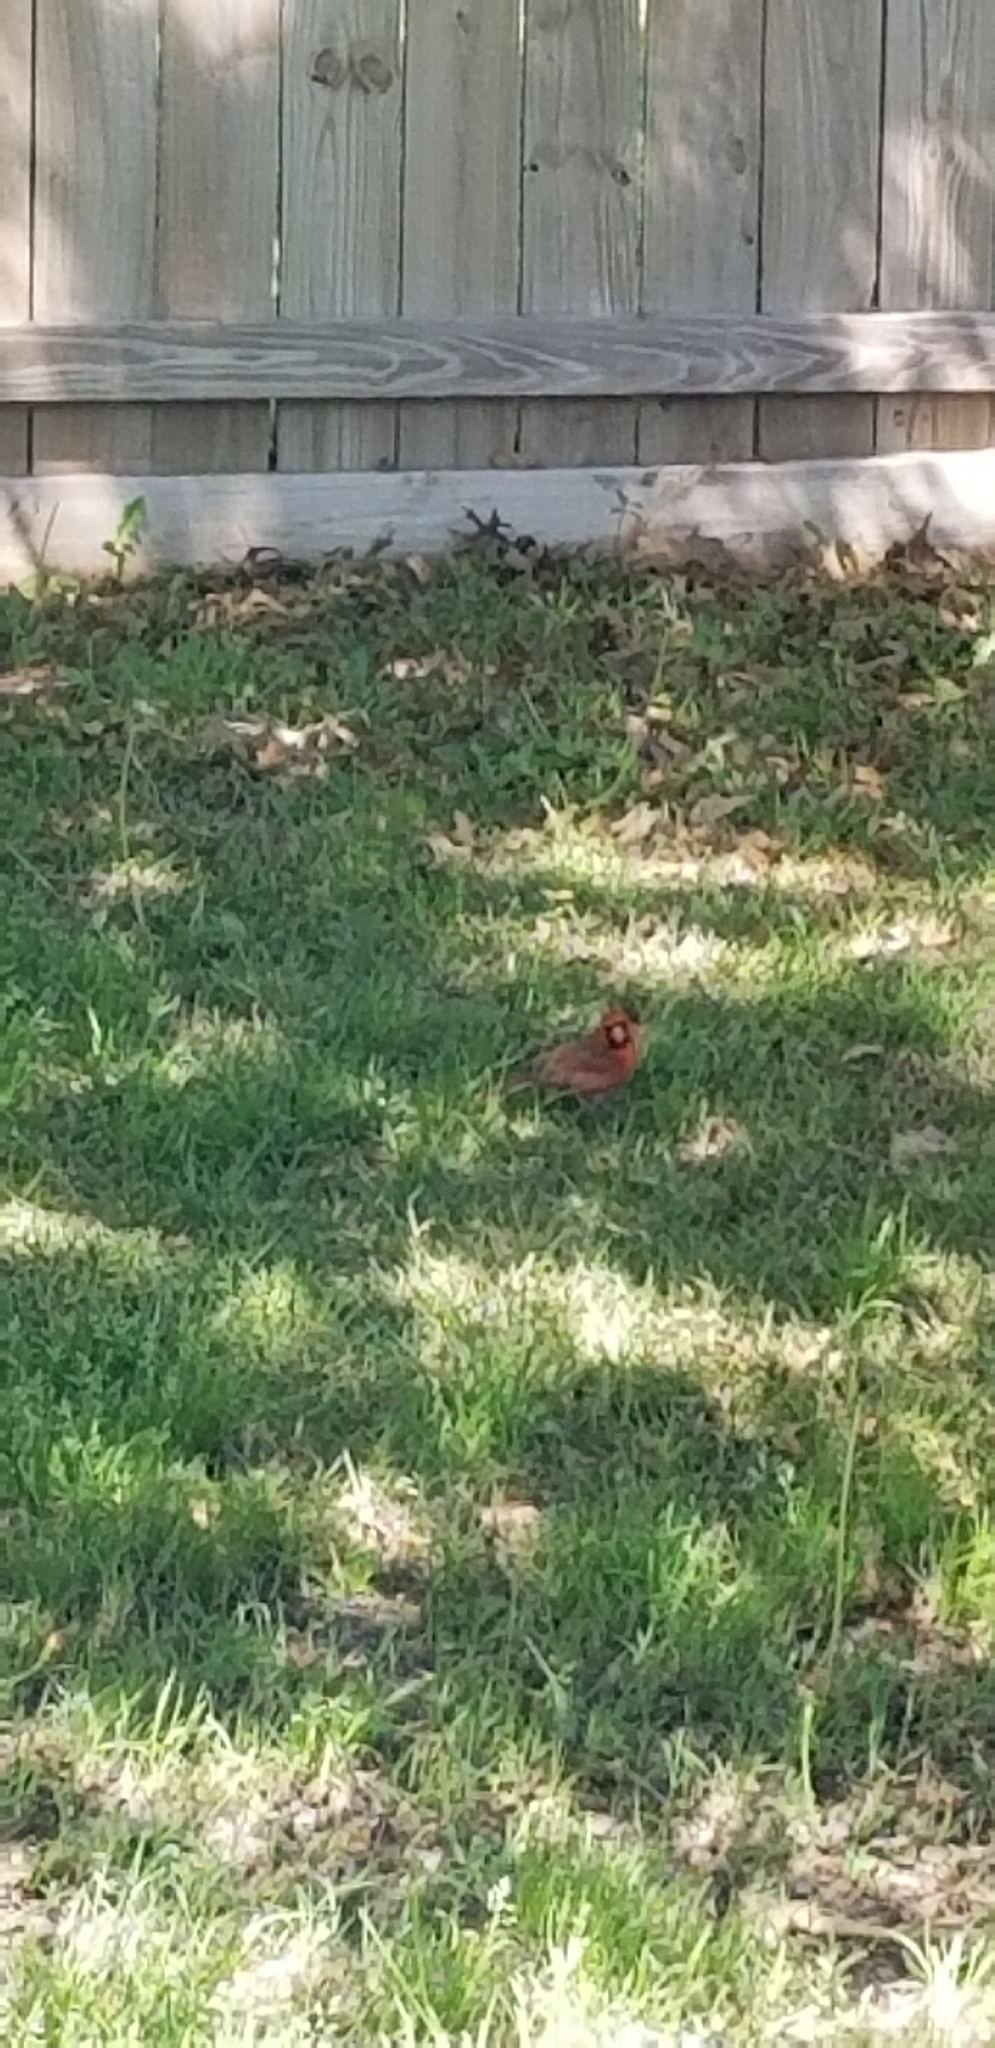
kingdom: Animalia
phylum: Chordata
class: Aves
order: Passeriformes
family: Cardinalidae
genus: Cardinalis
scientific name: Cardinalis cardinalis
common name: Northern cardinal
